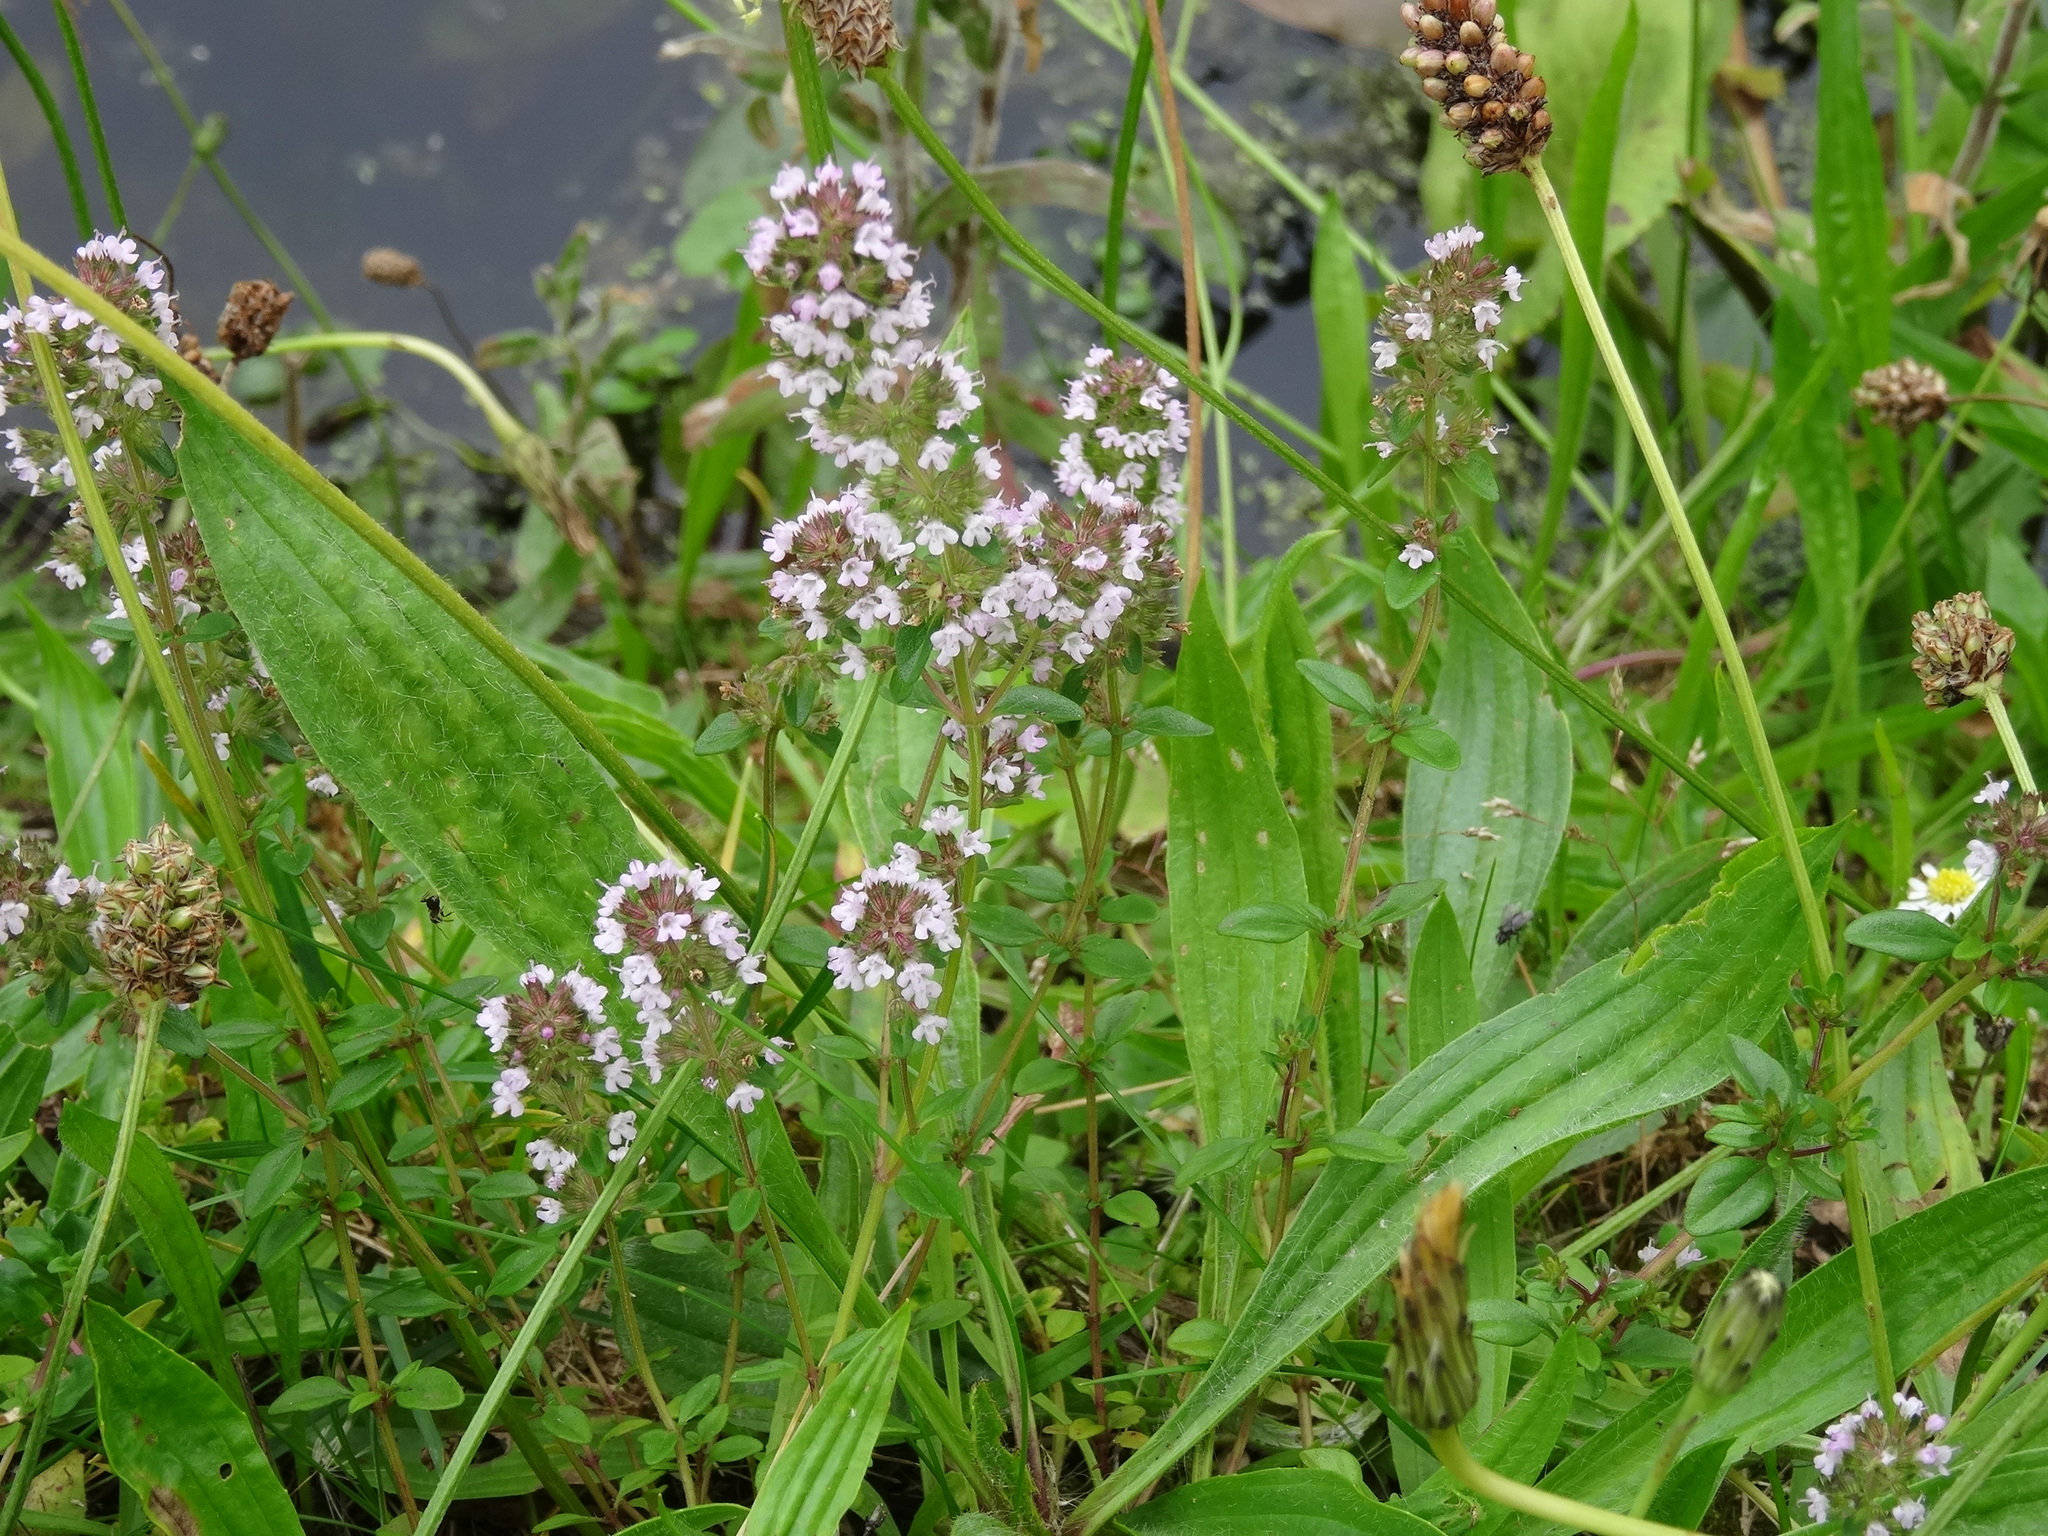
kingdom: Plantae
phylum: Tracheophyta
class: Magnoliopsida
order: Lamiales
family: Lamiaceae
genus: Thymus
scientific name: Thymus pulegioides
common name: Large thyme
